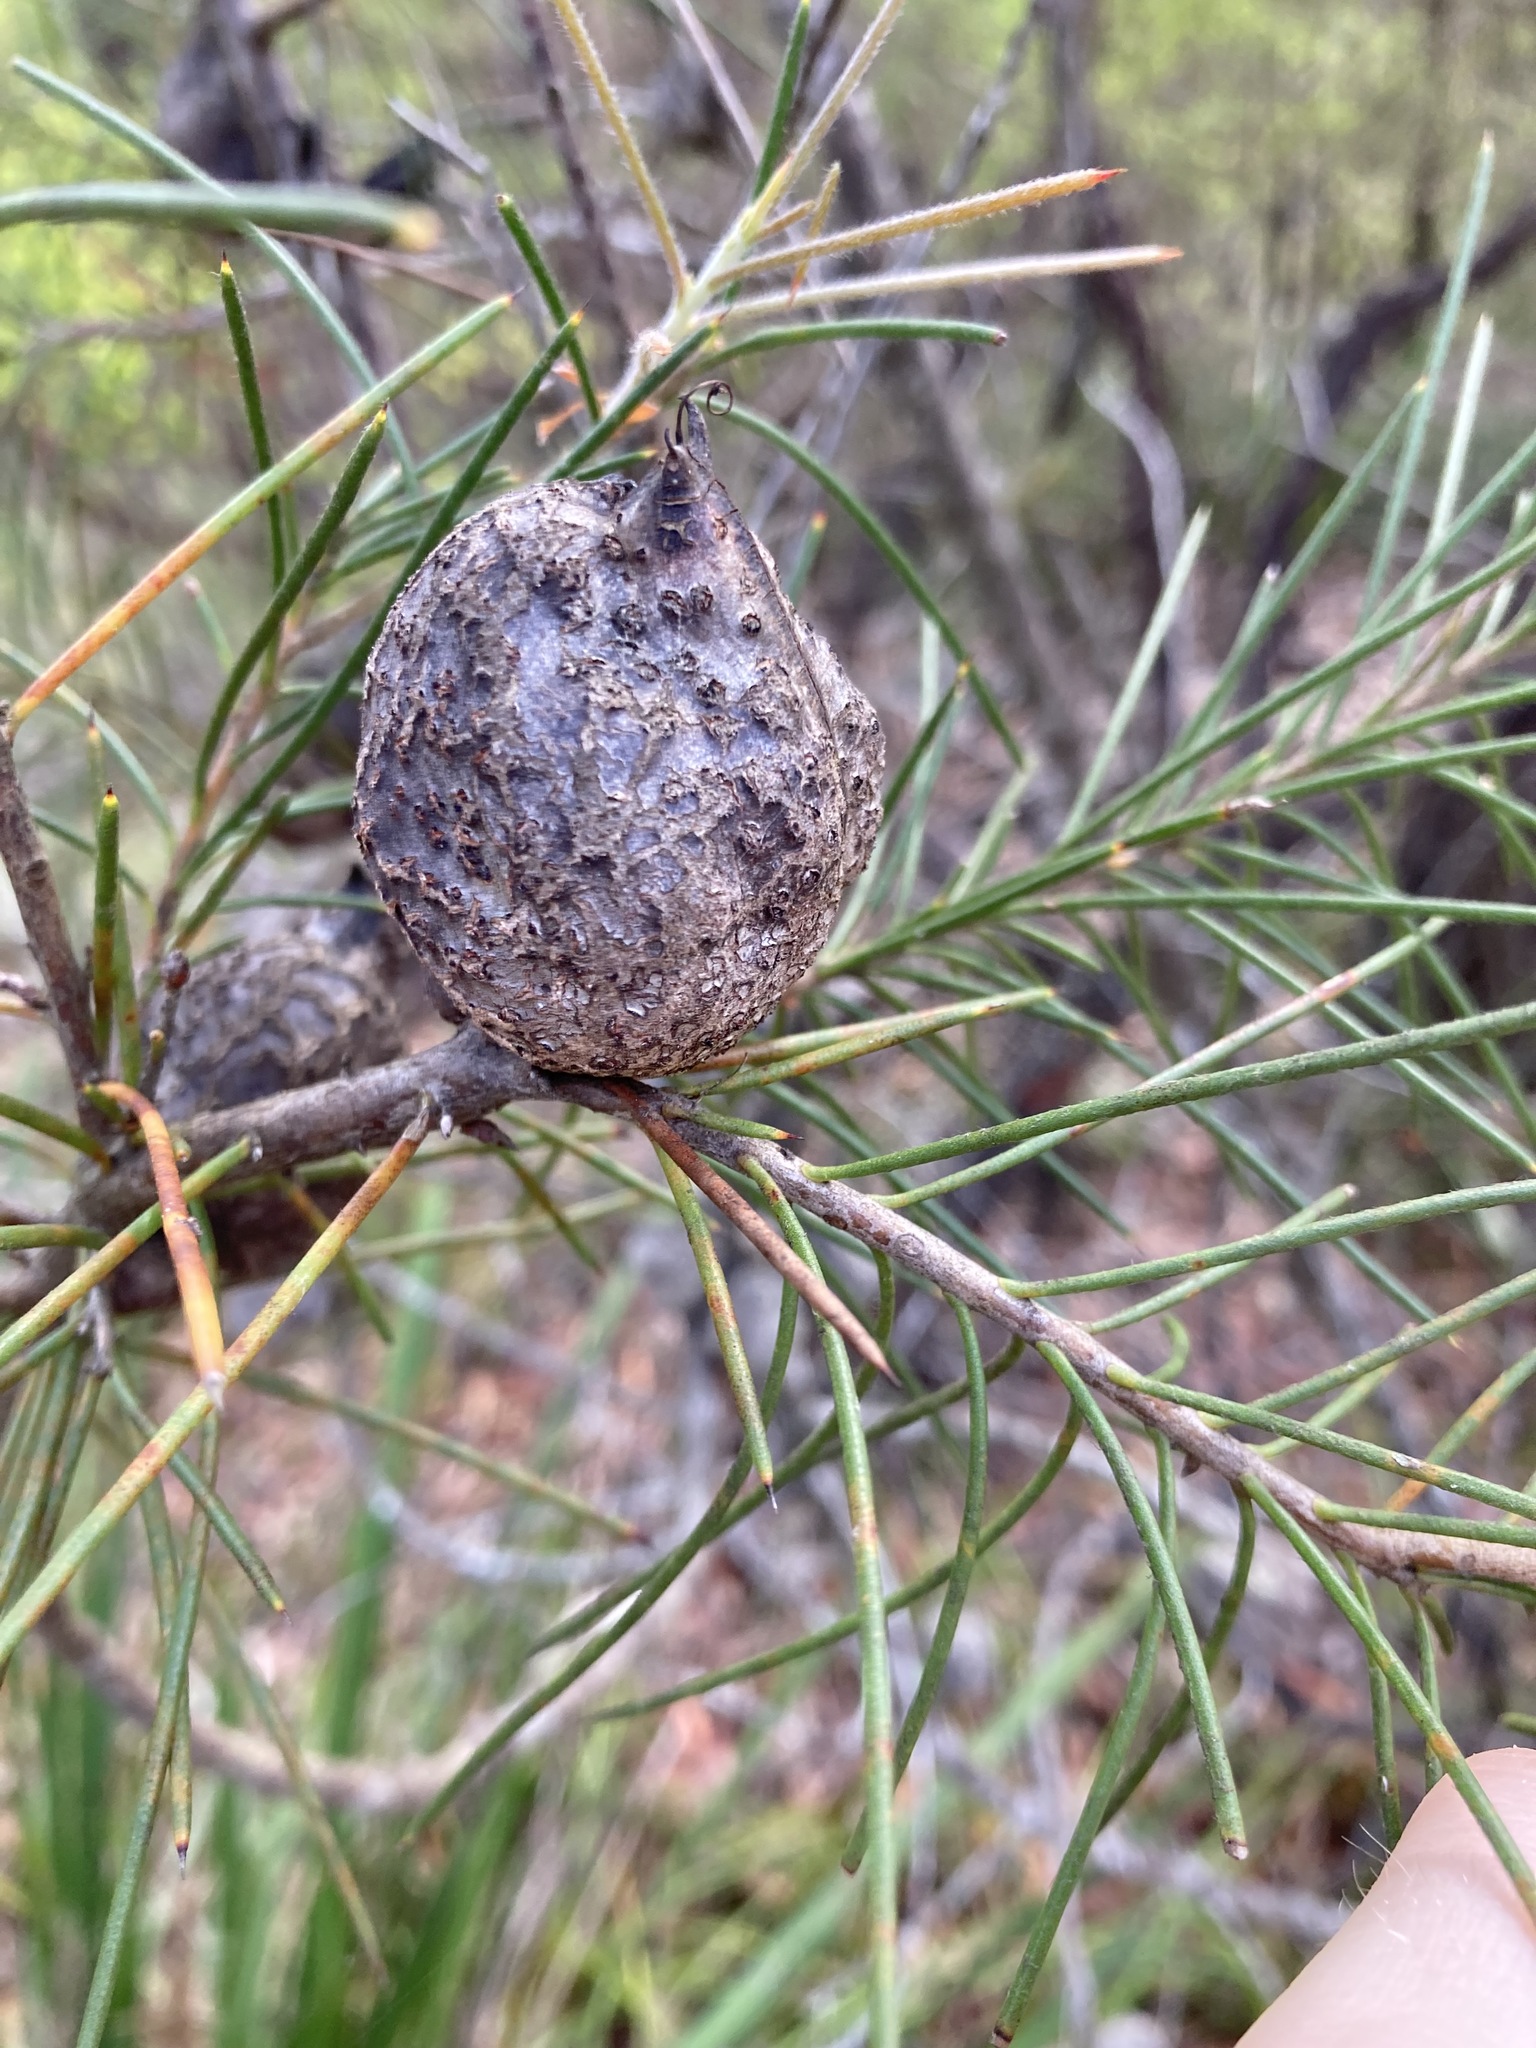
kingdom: Plantae
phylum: Tracheophyta
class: Magnoliopsida
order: Proteales
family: Proteaceae
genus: Hakea
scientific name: Hakea gibbosa
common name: Rock hakea
